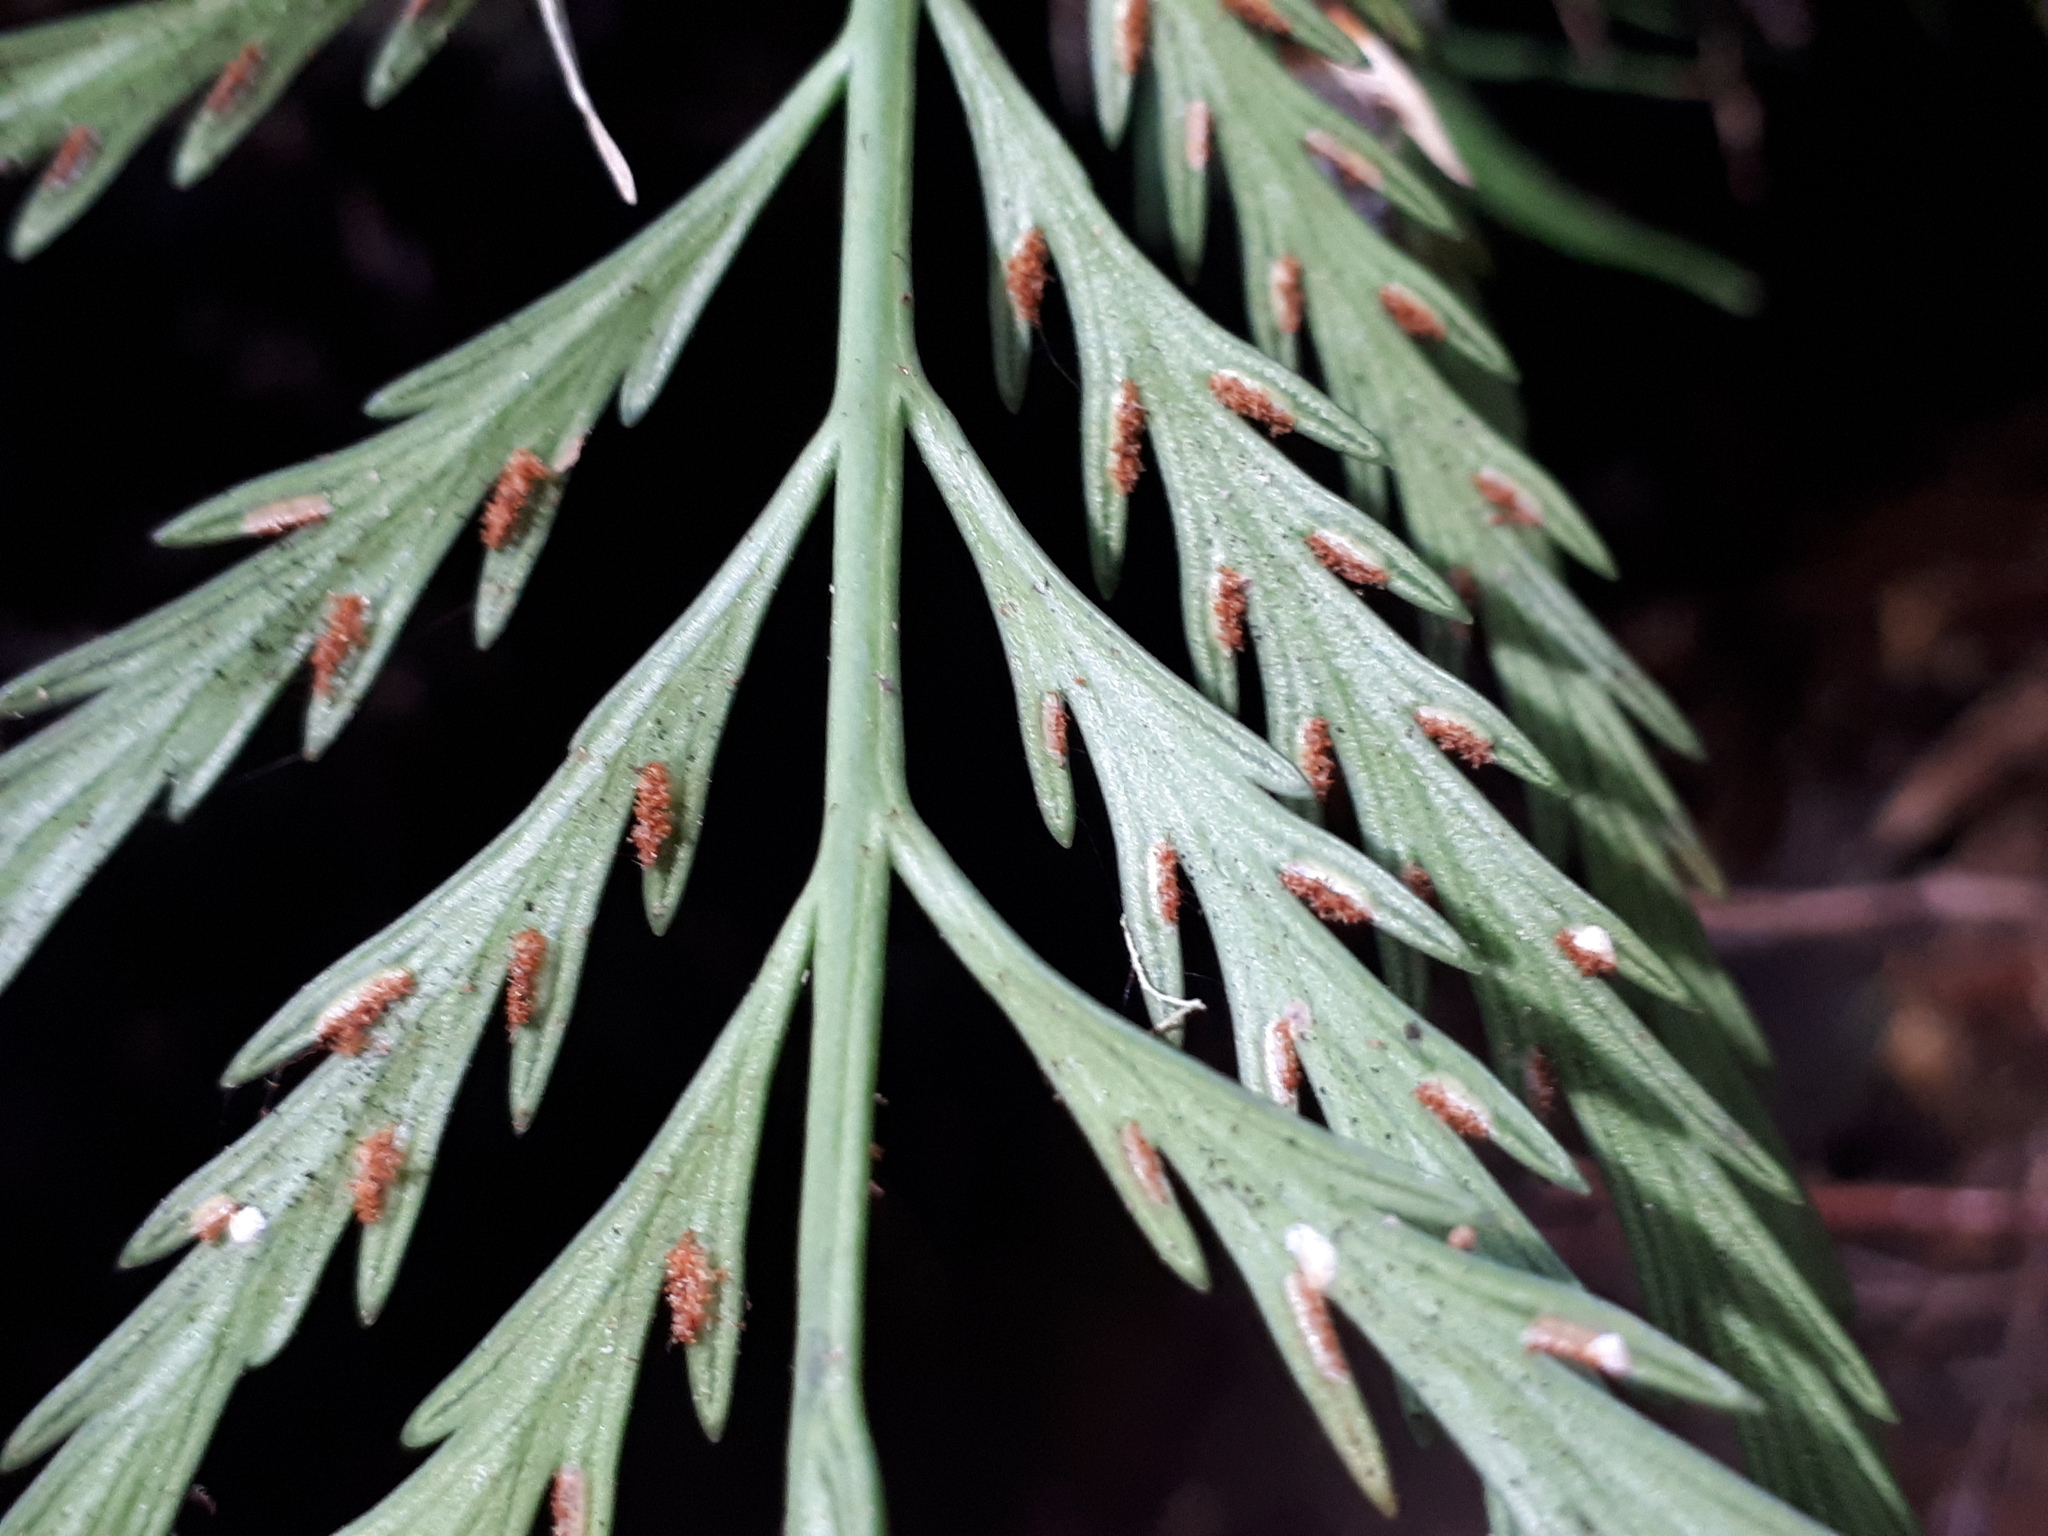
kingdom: Plantae
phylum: Tracheophyta
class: Polypodiopsida
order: Polypodiales
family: Aspleniaceae
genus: Asplenium
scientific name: Asplenium flaccidum
